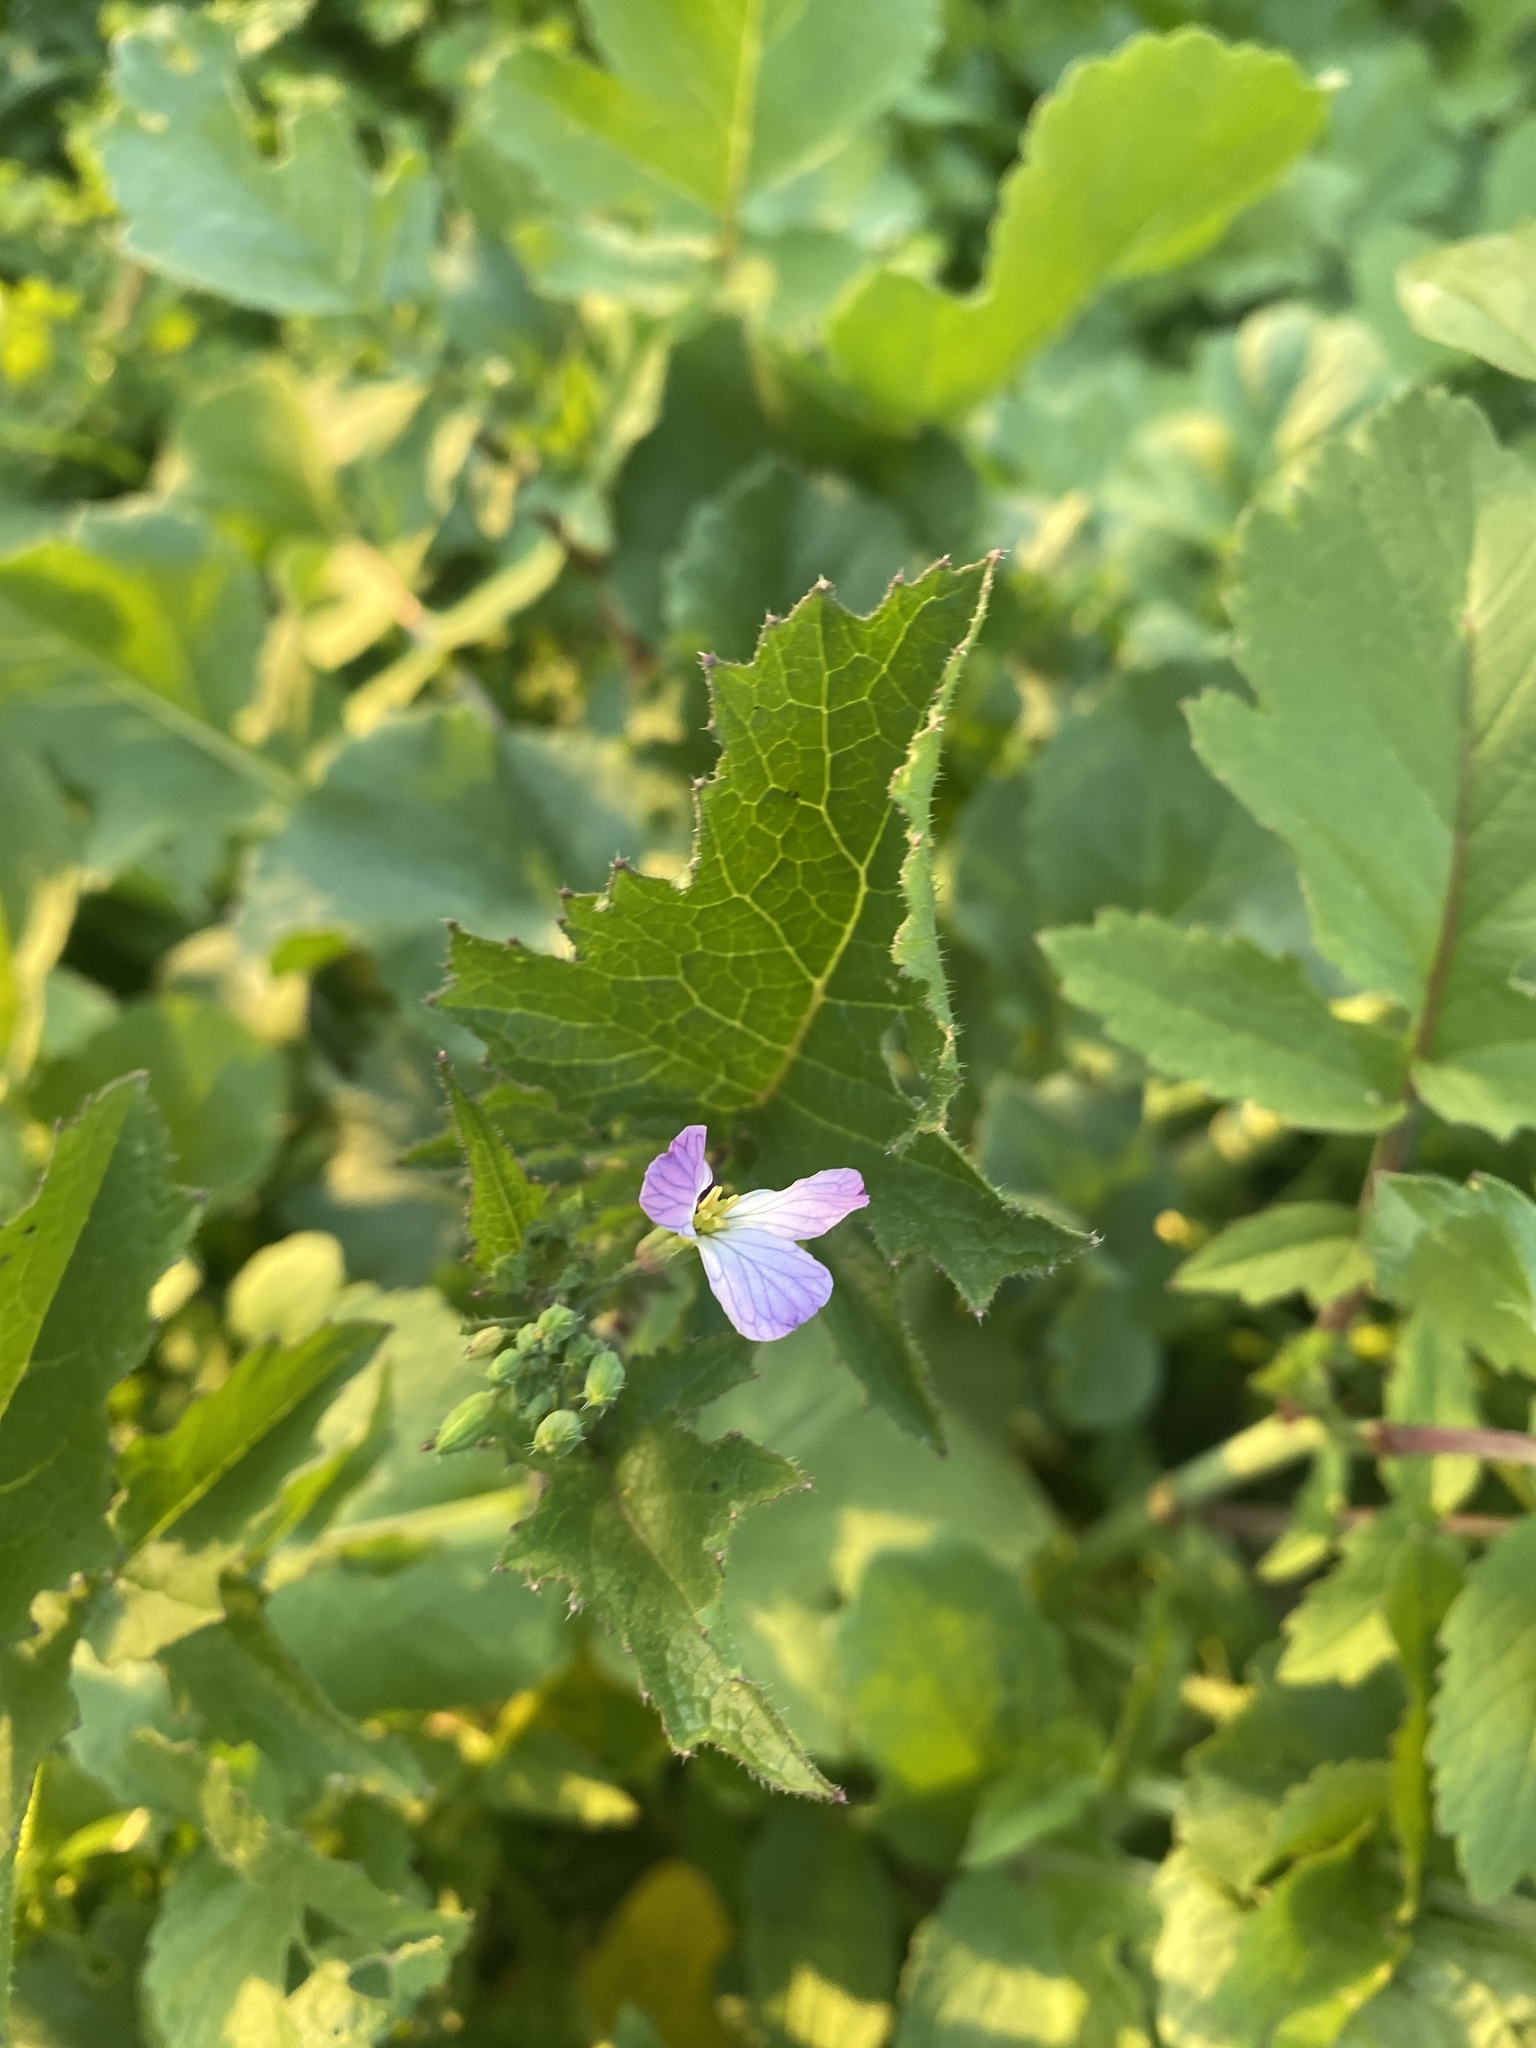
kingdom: Plantae
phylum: Tracheophyta
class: Magnoliopsida
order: Brassicales
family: Brassicaceae
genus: Raphanus
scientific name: Raphanus sativus
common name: Cultivated radish
